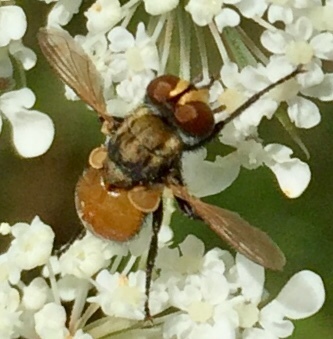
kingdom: Animalia
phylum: Arthropoda
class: Insecta
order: Diptera
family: Tachinidae
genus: Gymnoclytia
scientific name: Gymnoclytia
